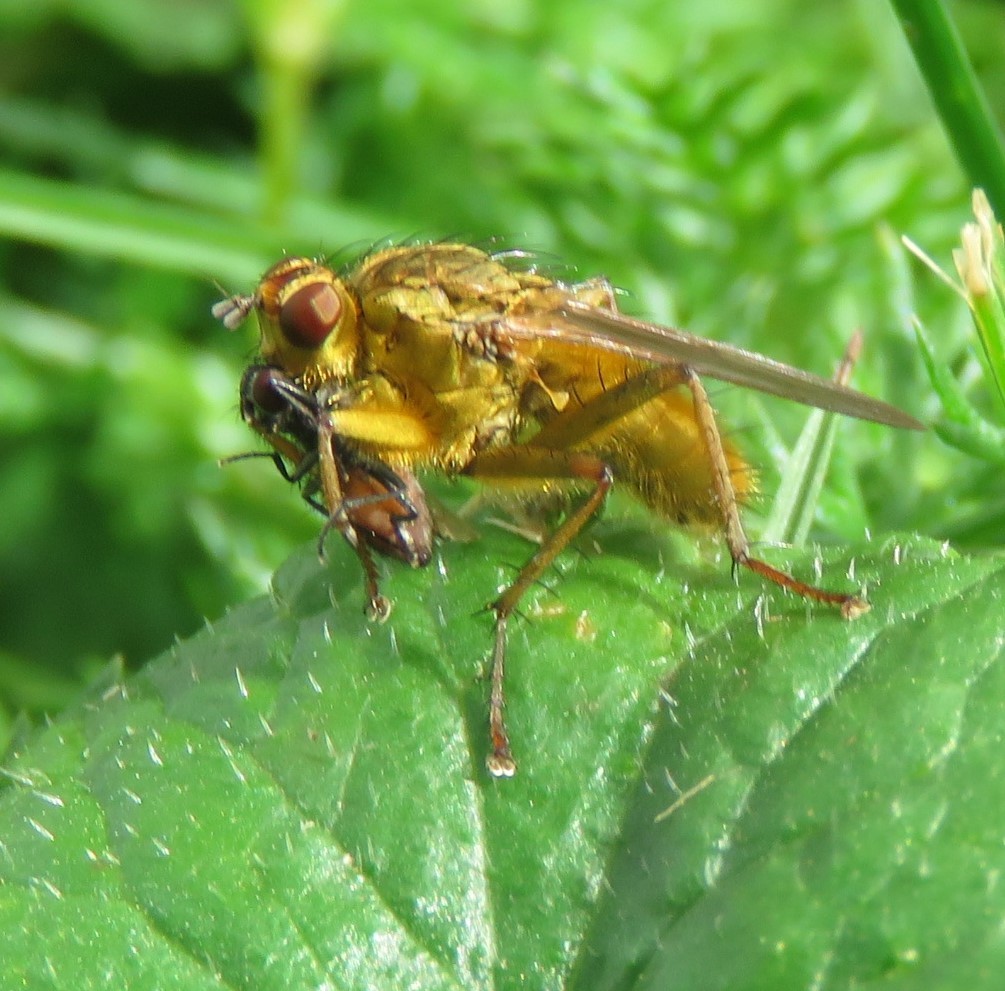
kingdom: Animalia
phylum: Arthropoda
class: Insecta
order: Diptera
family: Scathophagidae
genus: Scathophaga
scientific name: Scathophaga stercoraria
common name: Yellow dung fly
